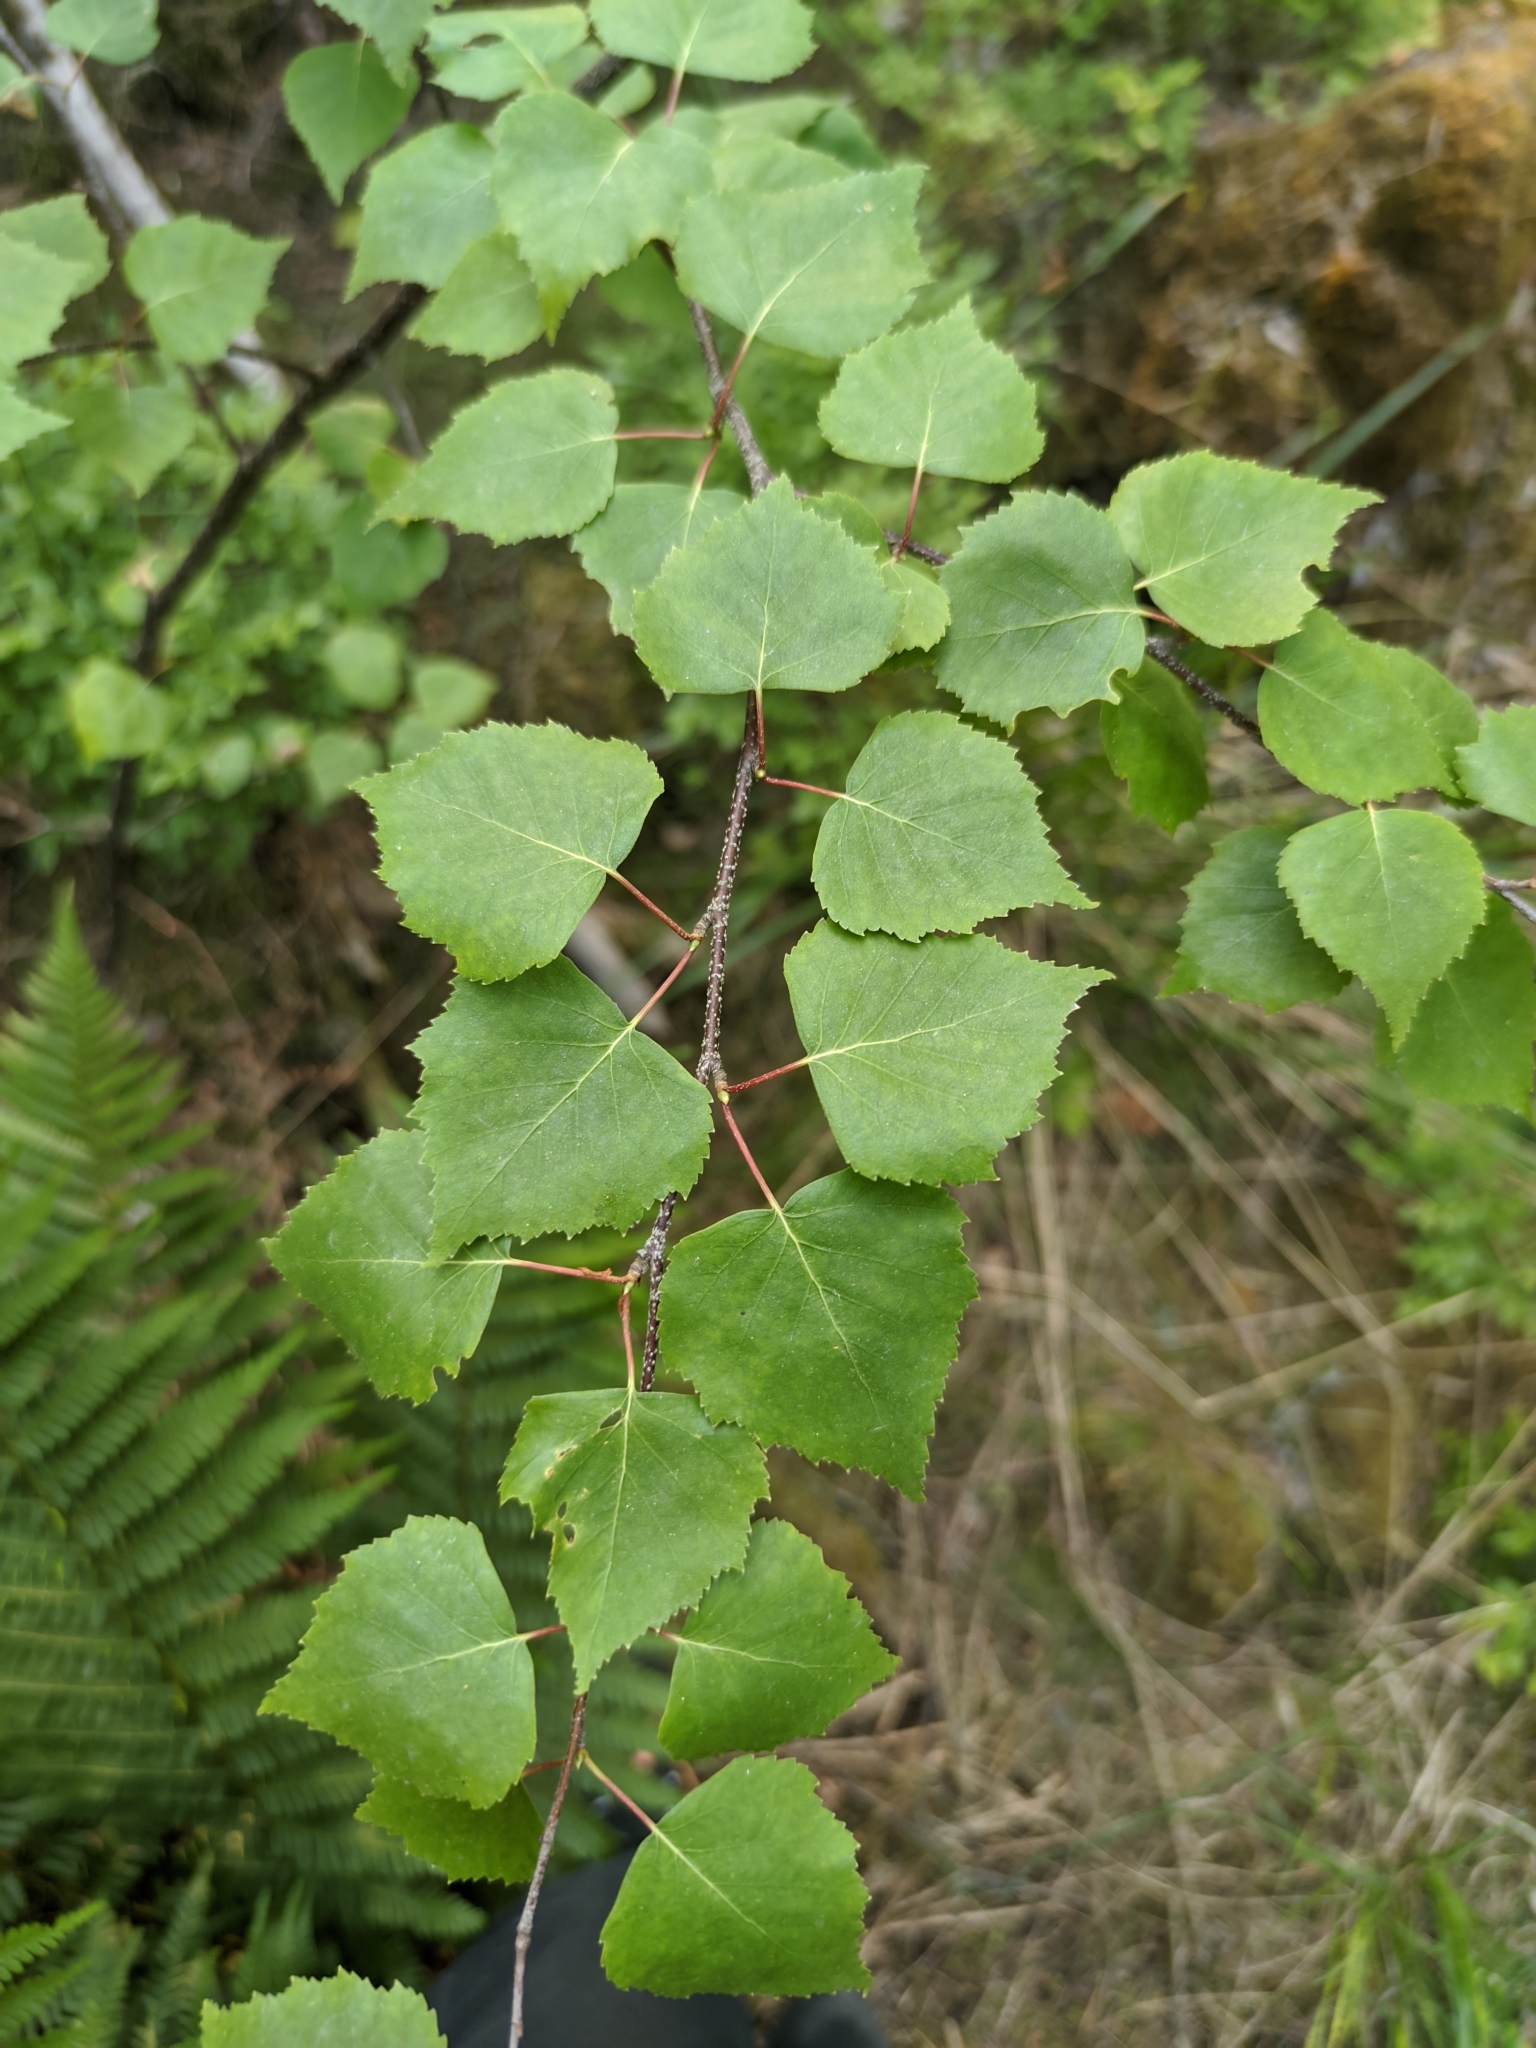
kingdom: Plantae
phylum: Tracheophyta
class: Magnoliopsida
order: Fagales
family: Betulaceae
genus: Betula
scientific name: Betula pendula
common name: Silver birch
